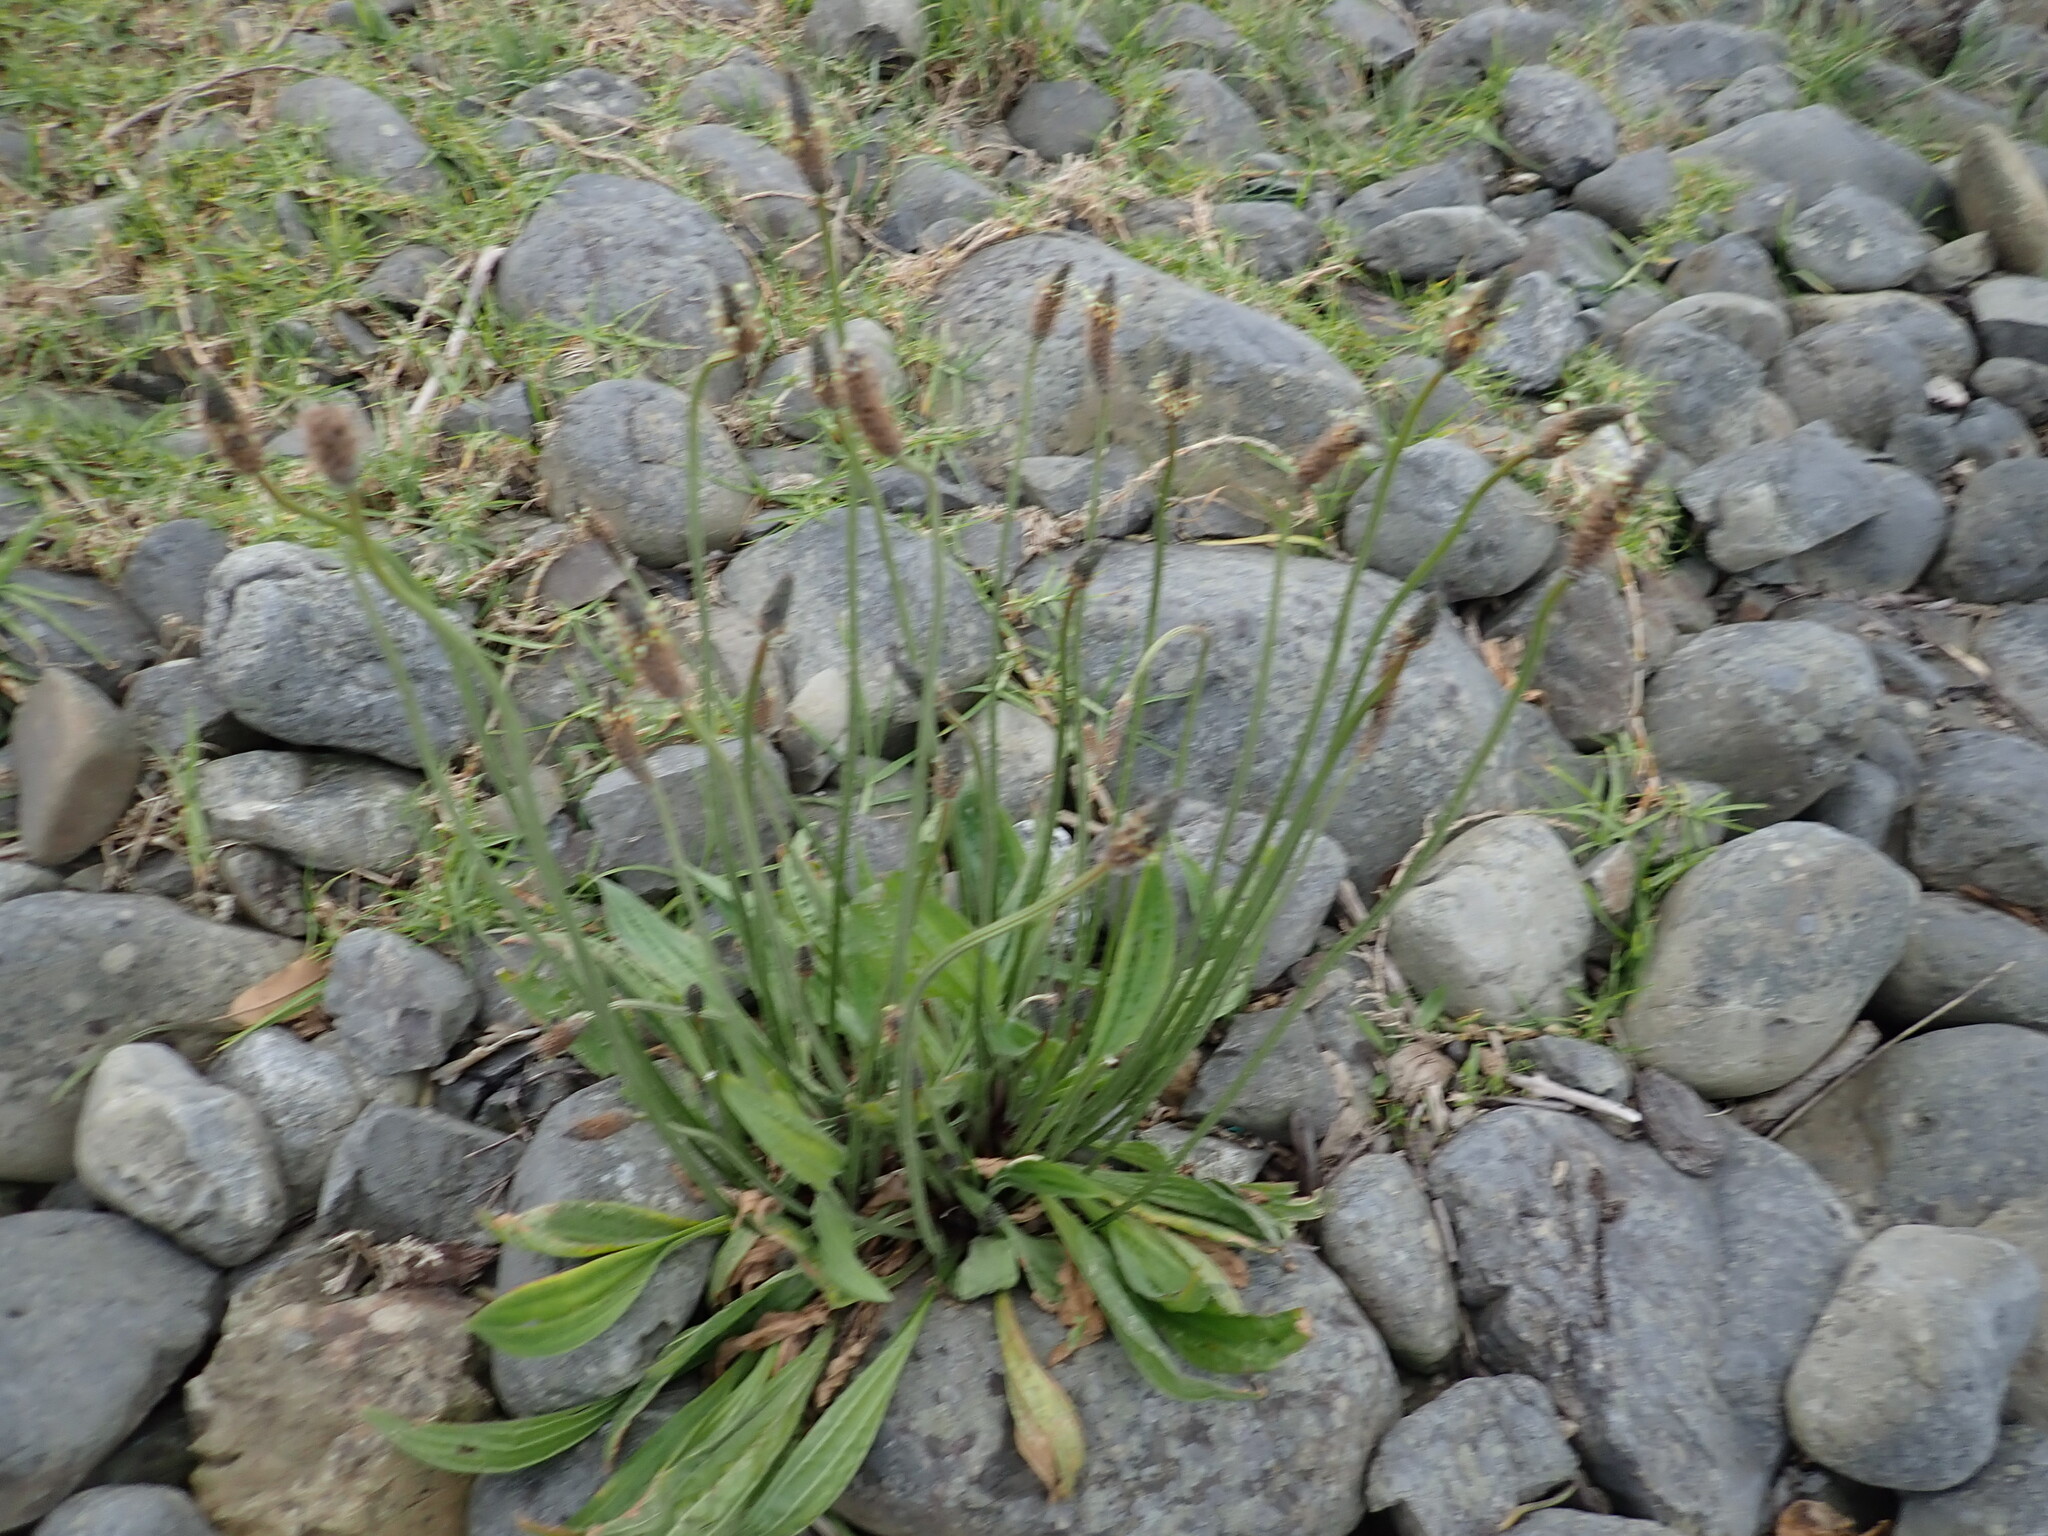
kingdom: Plantae
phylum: Tracheophyta
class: Magnoliopsida
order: Lamiales
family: Plantaginaceae
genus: Plantago
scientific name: Plantago lanceolata
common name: Ribwort plantain
